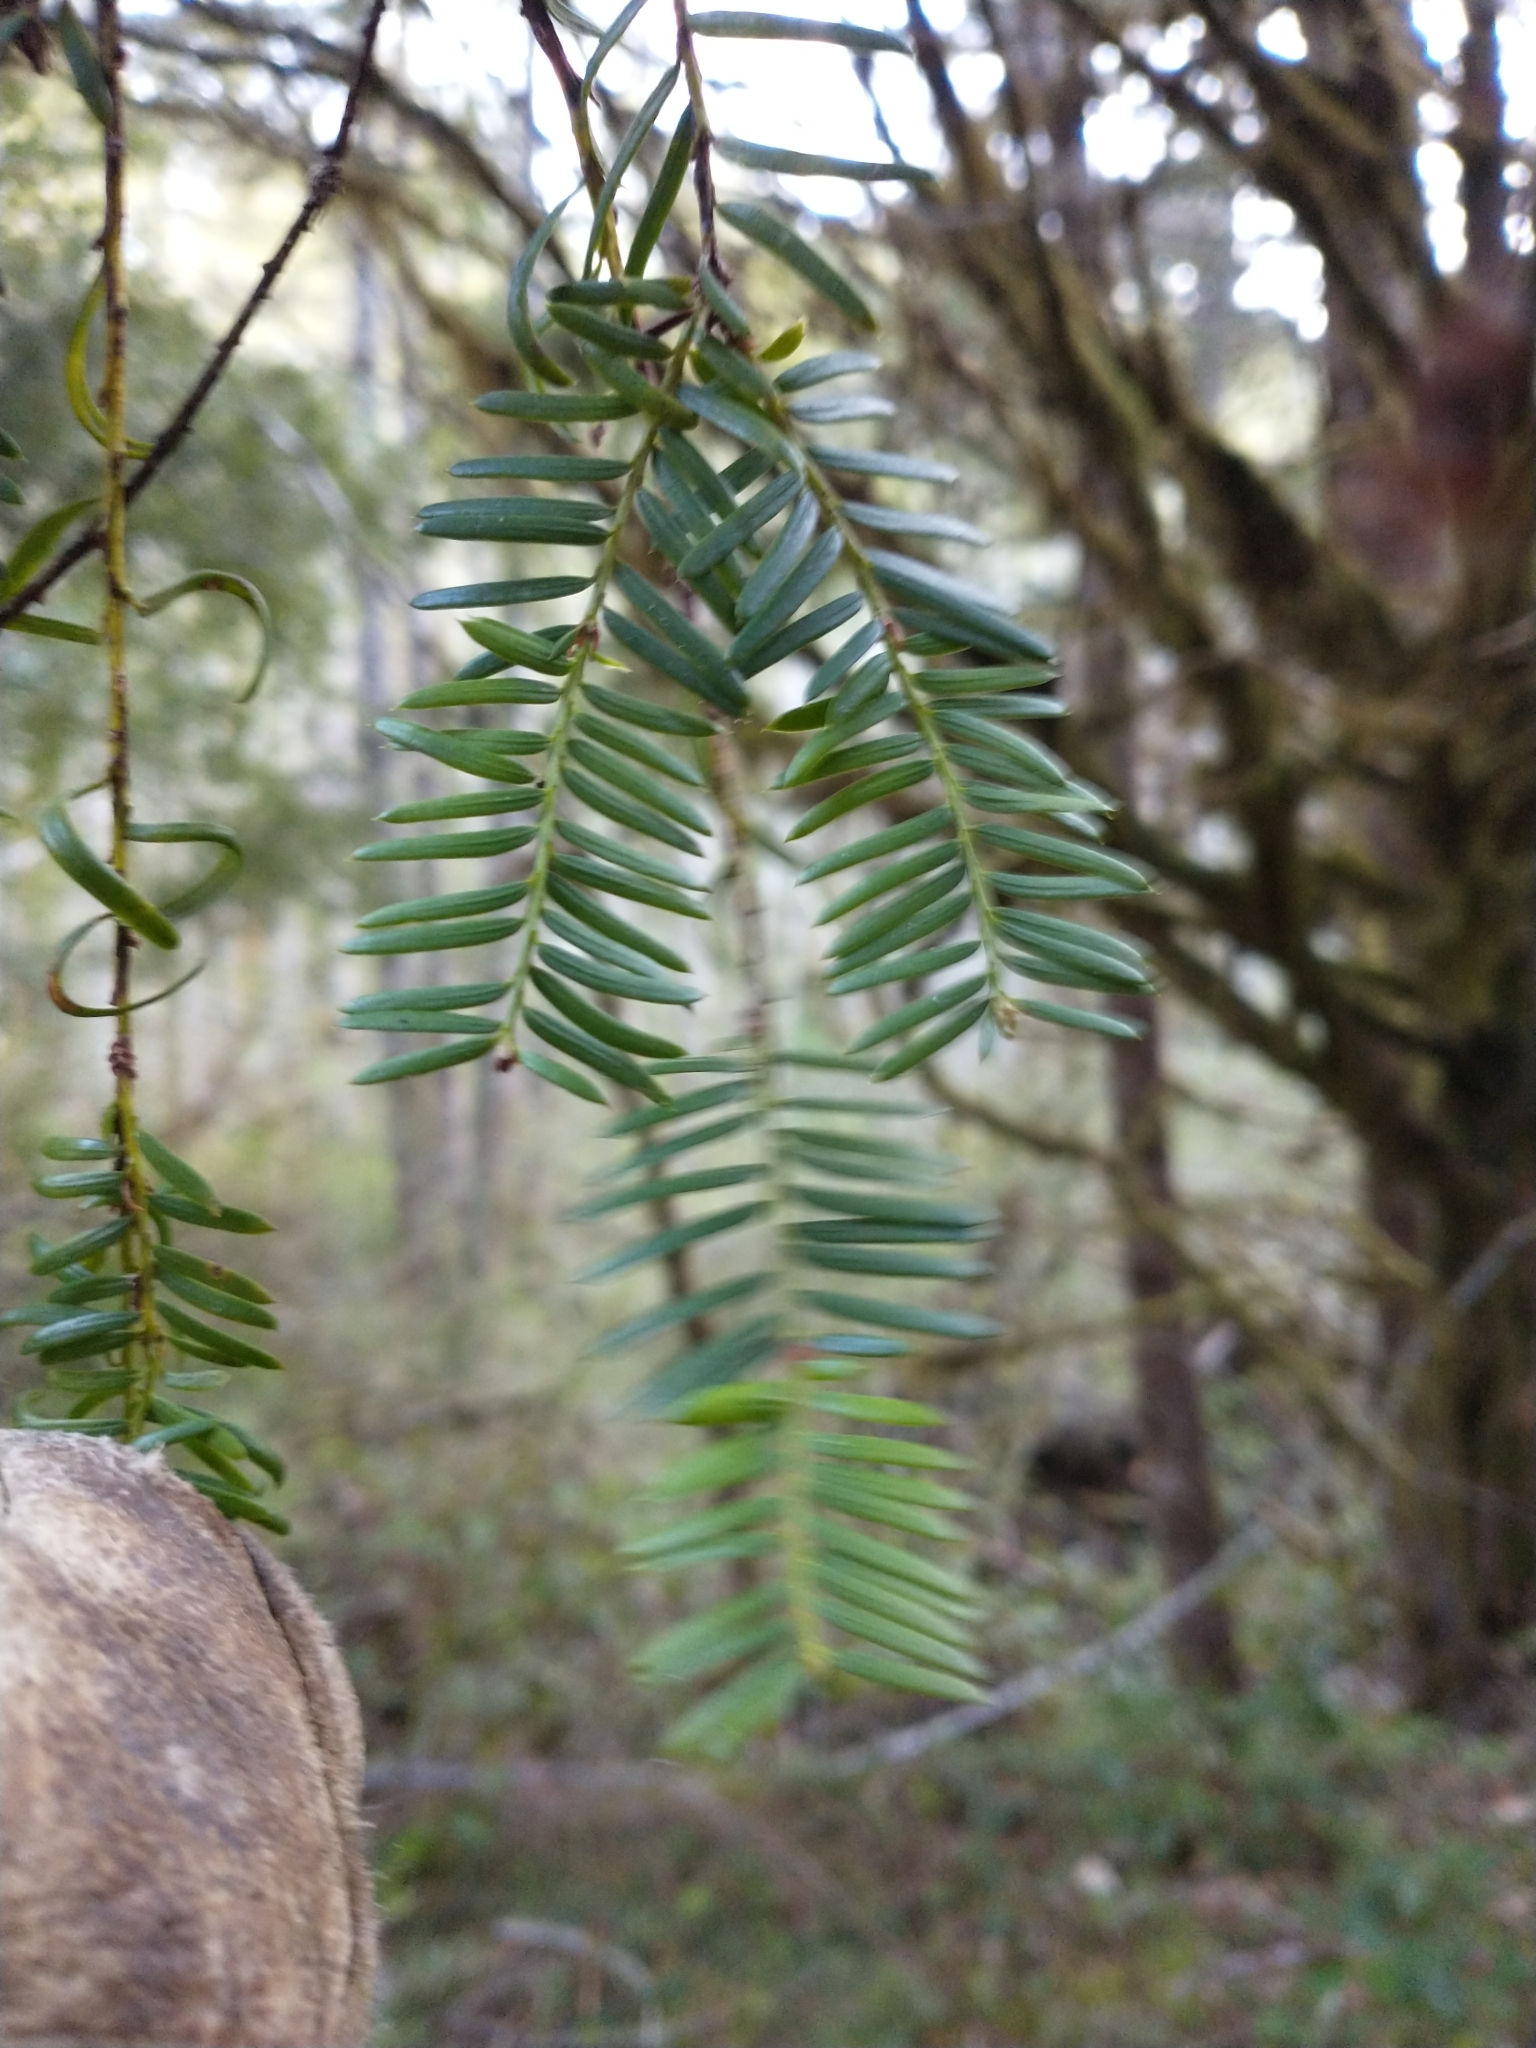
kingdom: Plantae
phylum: Tracheophyta
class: Pinopsida
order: Pinales
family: Taxaceae
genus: Taxus
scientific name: Taxus brevifolia
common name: Pacific yew
